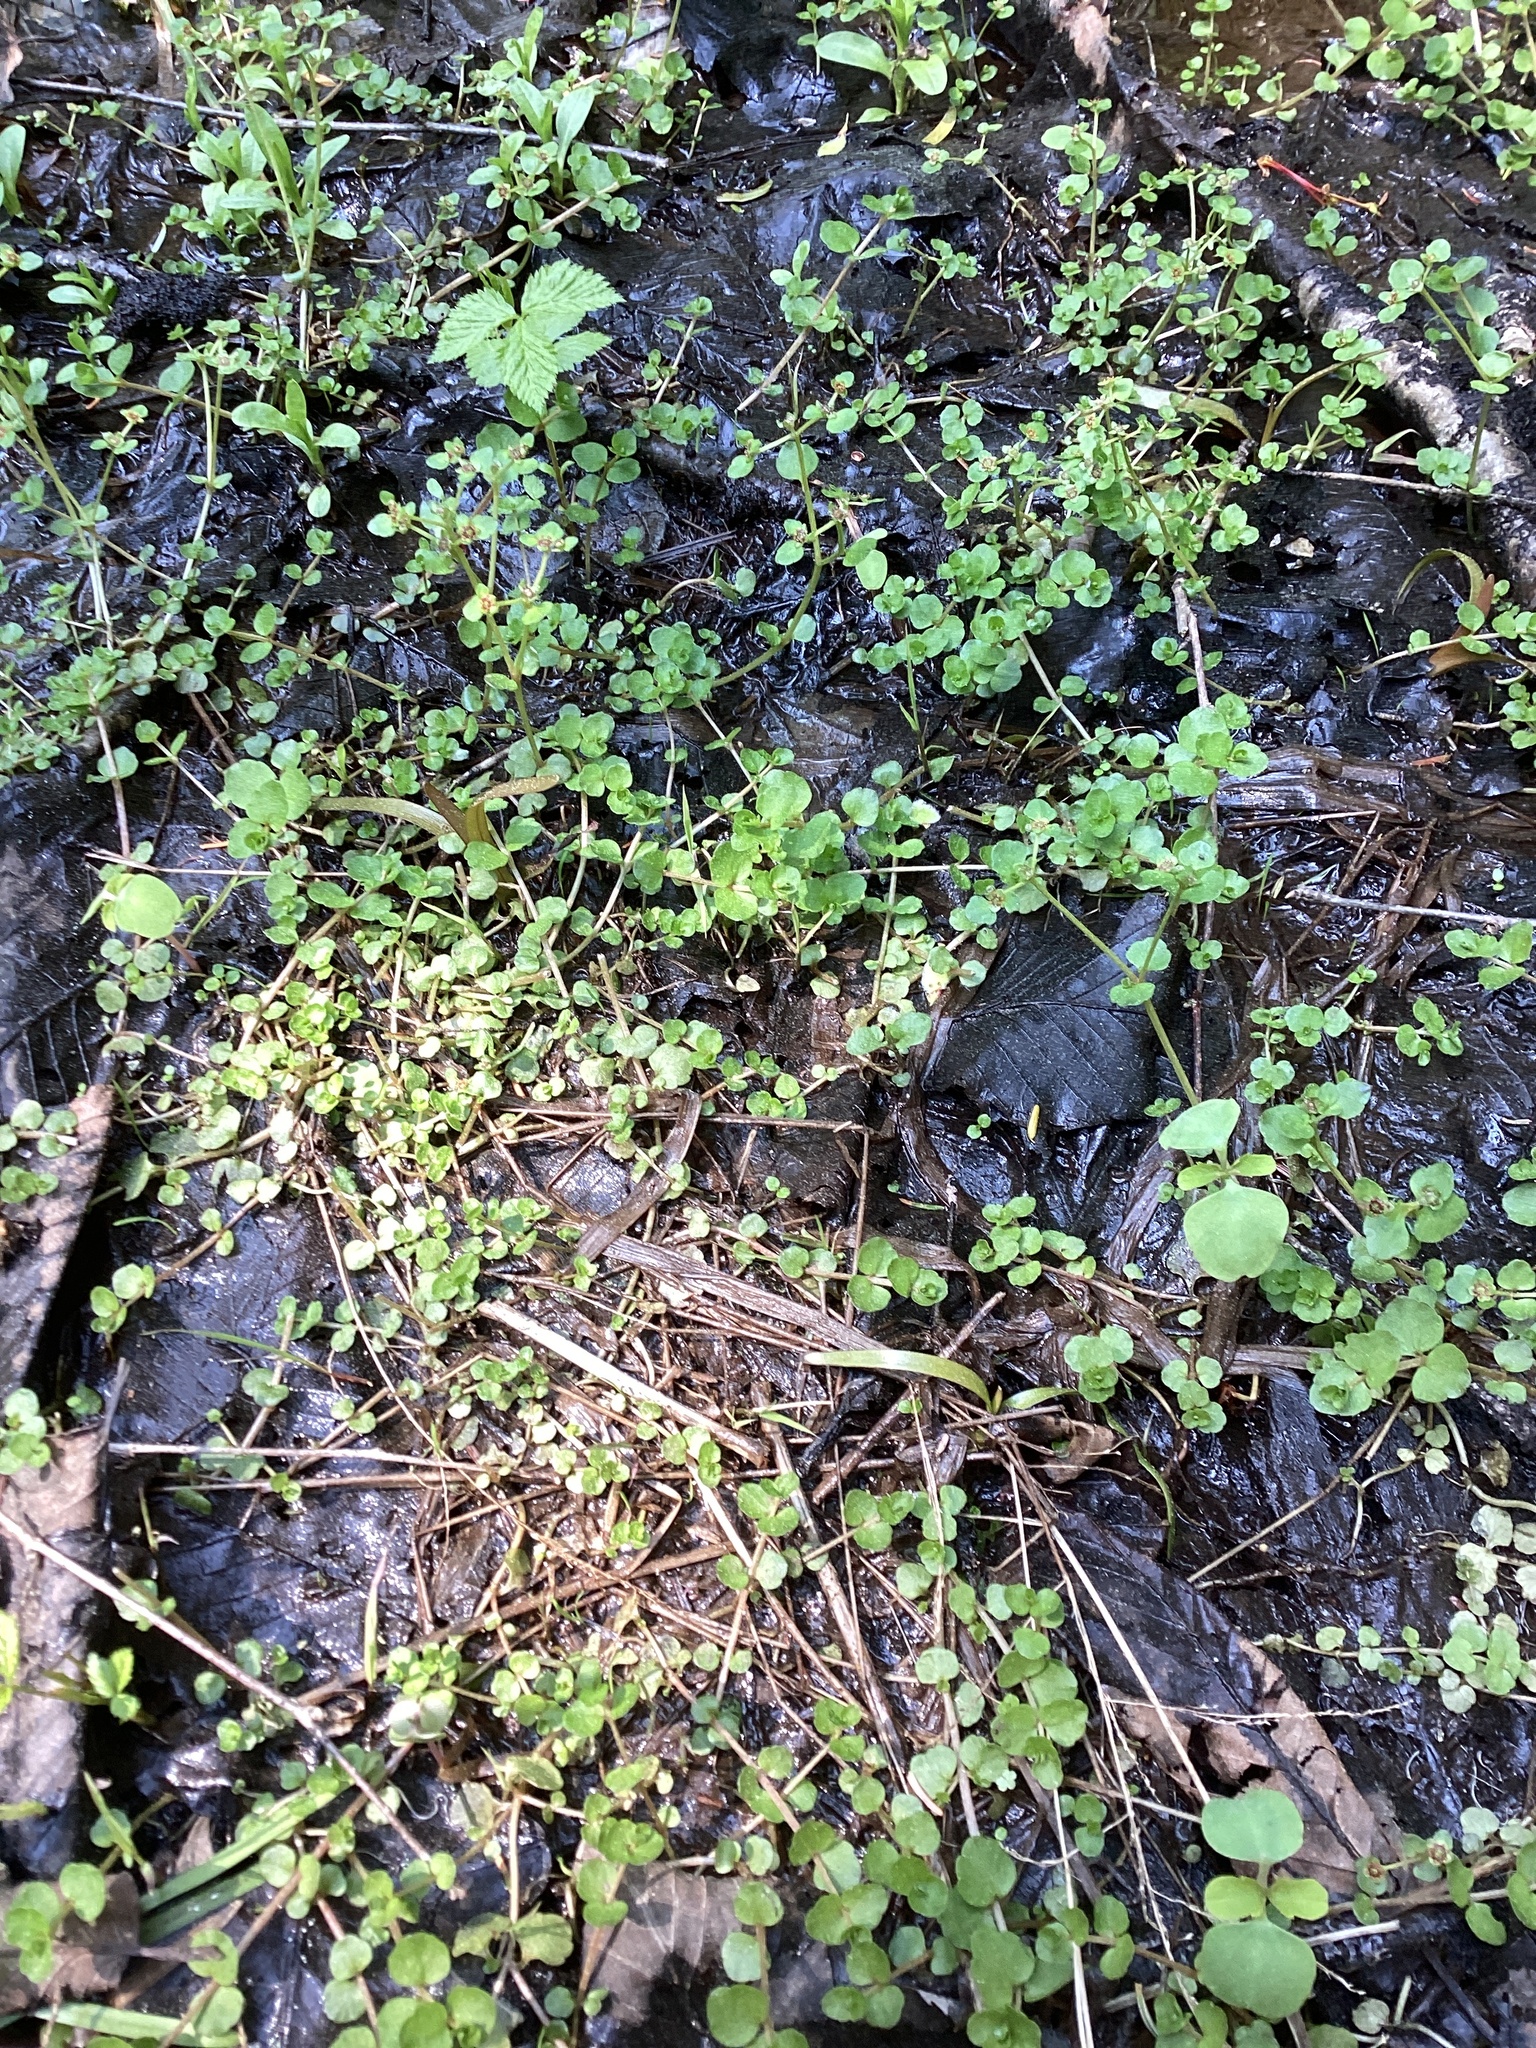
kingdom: Plantae
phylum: Tracheophyta
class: Magnoliopsida
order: Saxifragales
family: Saxifragaceae
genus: Chrysosplenium
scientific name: Chrysosplenium americanum
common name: American golden-saxifrage
